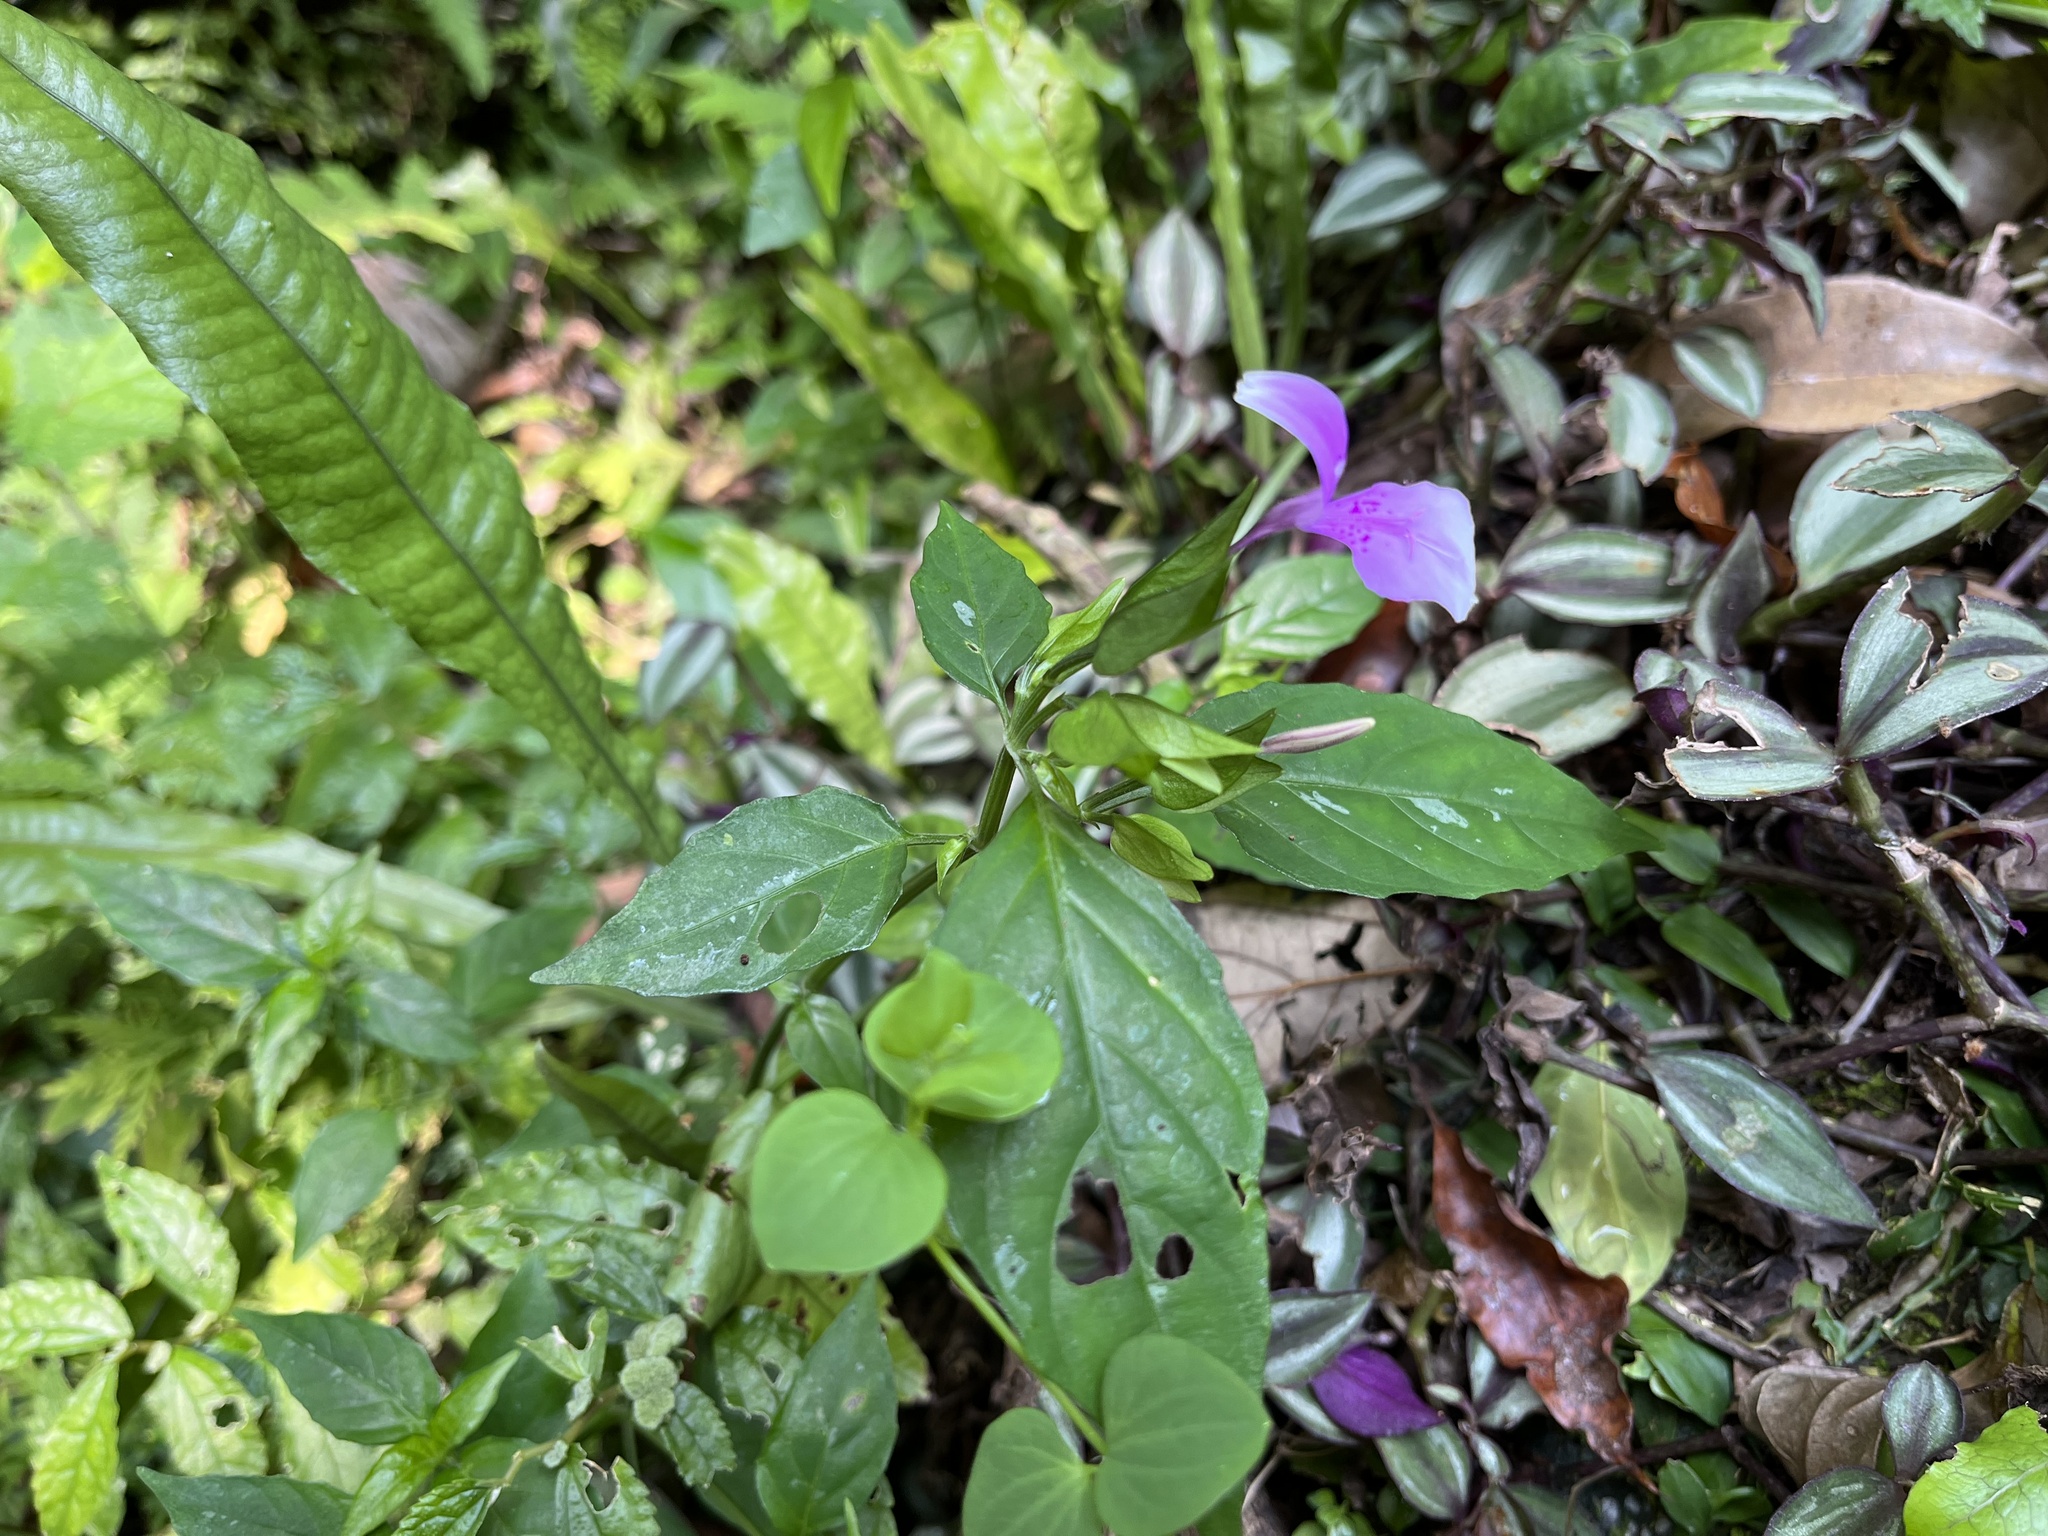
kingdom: Plantae
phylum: Tracheophyta
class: Magnoliopsida
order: Lamiales
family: Acanthaceae
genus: Dicliptera
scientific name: Dicliptera japonica
